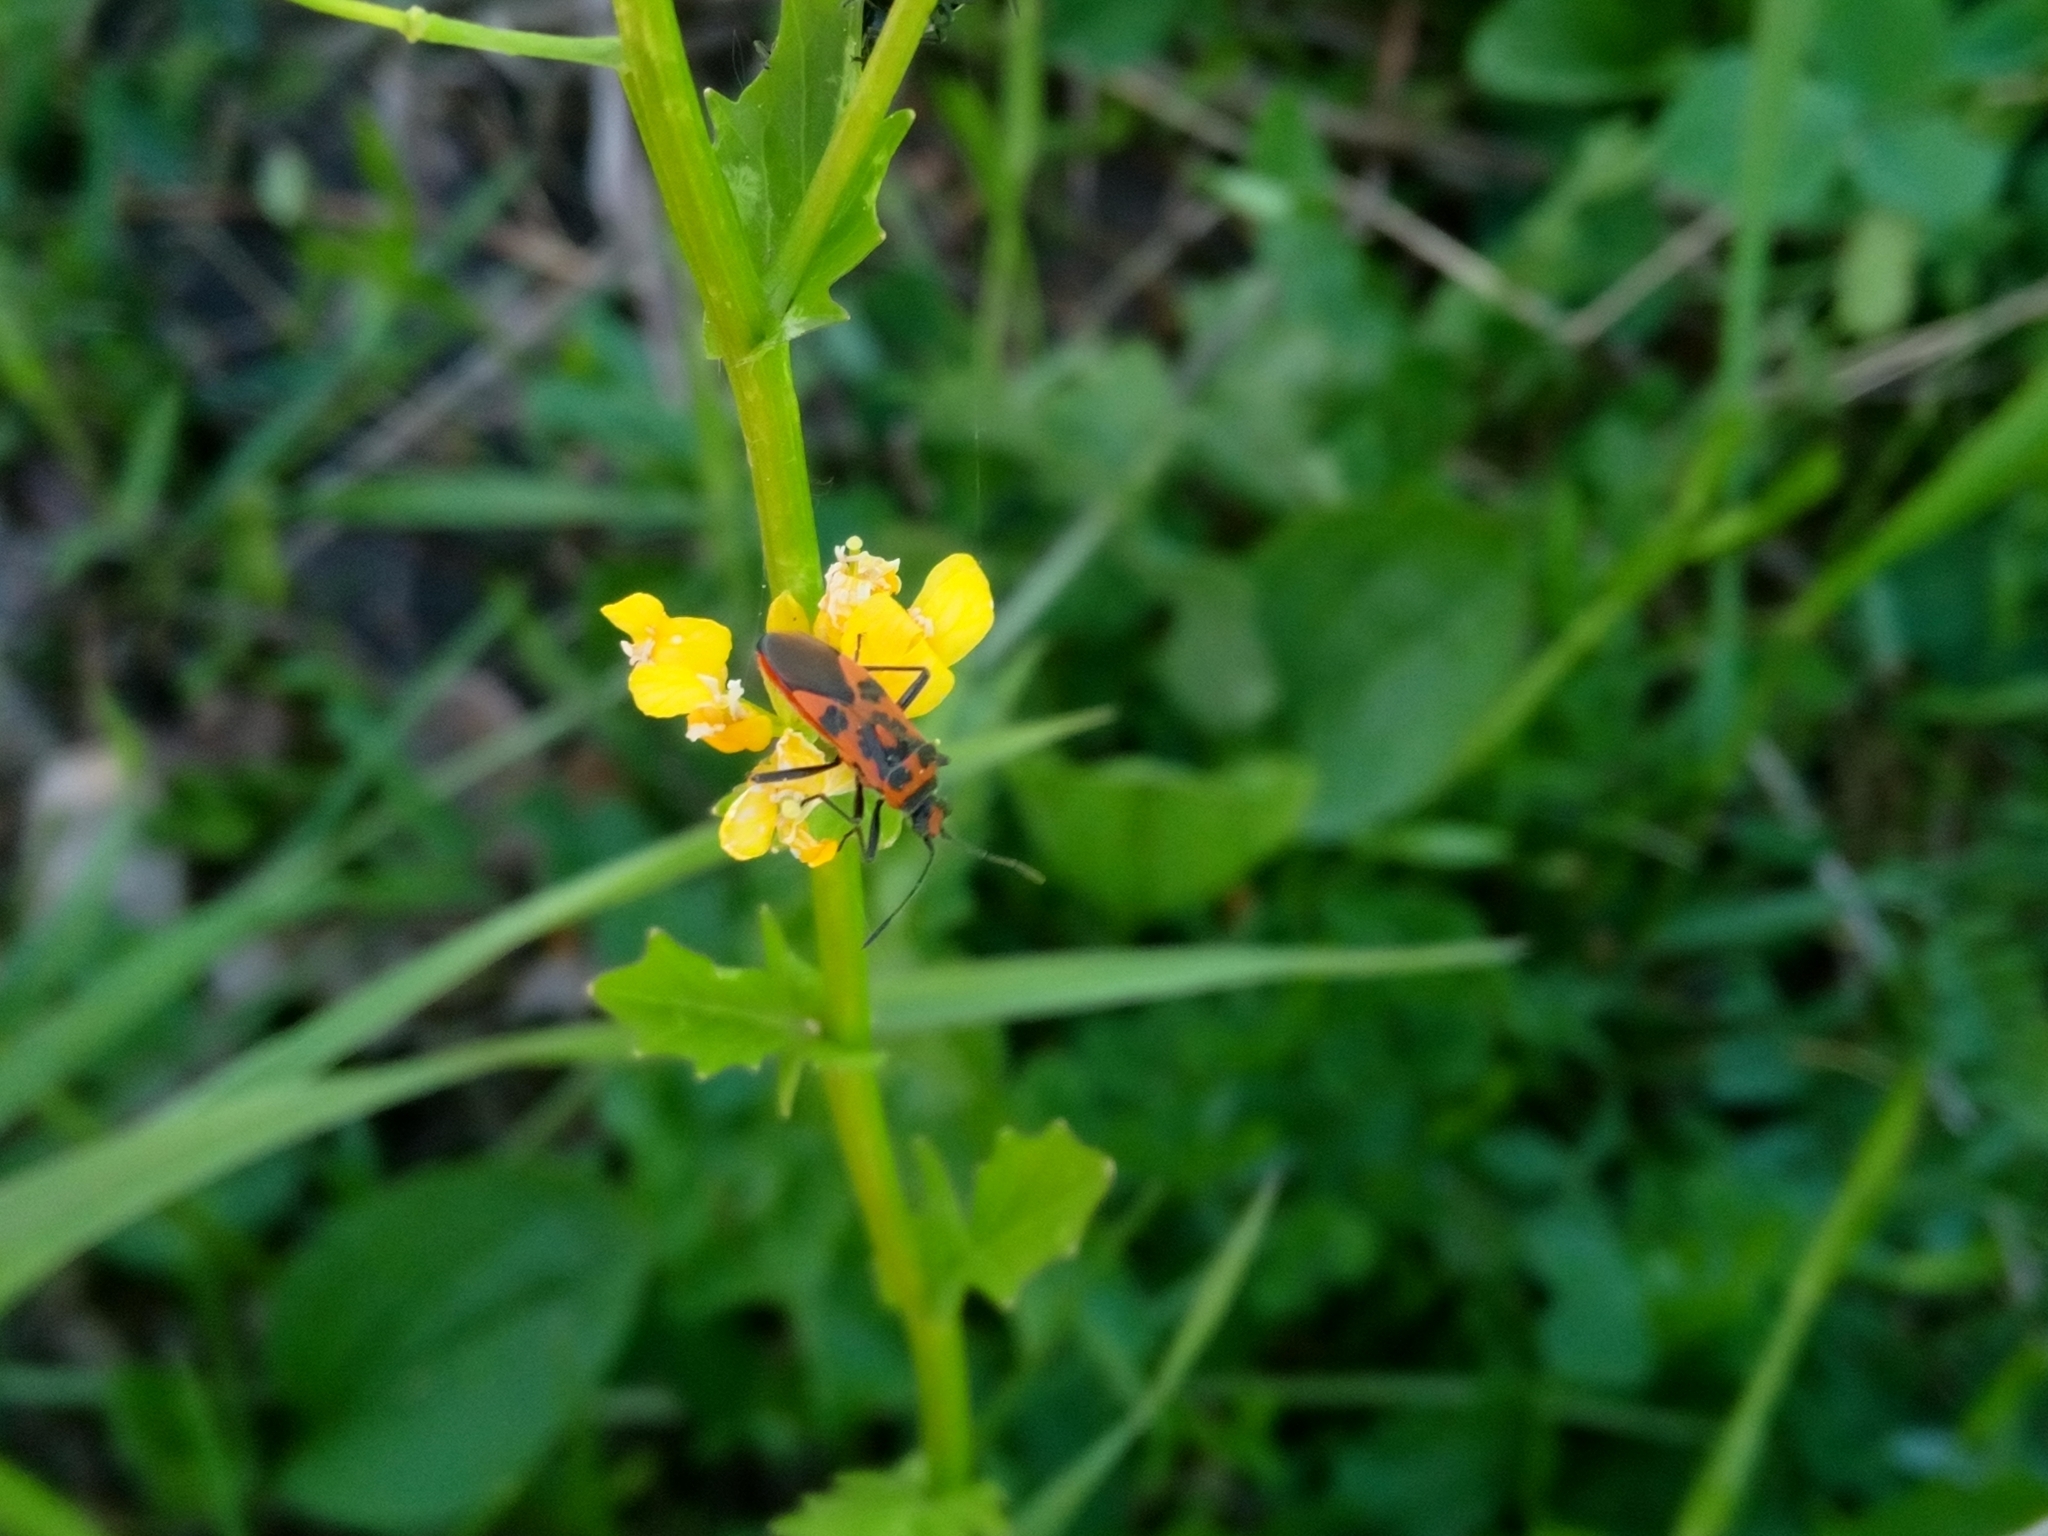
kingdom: Animalia
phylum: Arthropoda
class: Insecta
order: Hemiptera
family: Rhopalidae
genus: Corizus
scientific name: Corizus hyoscyami
